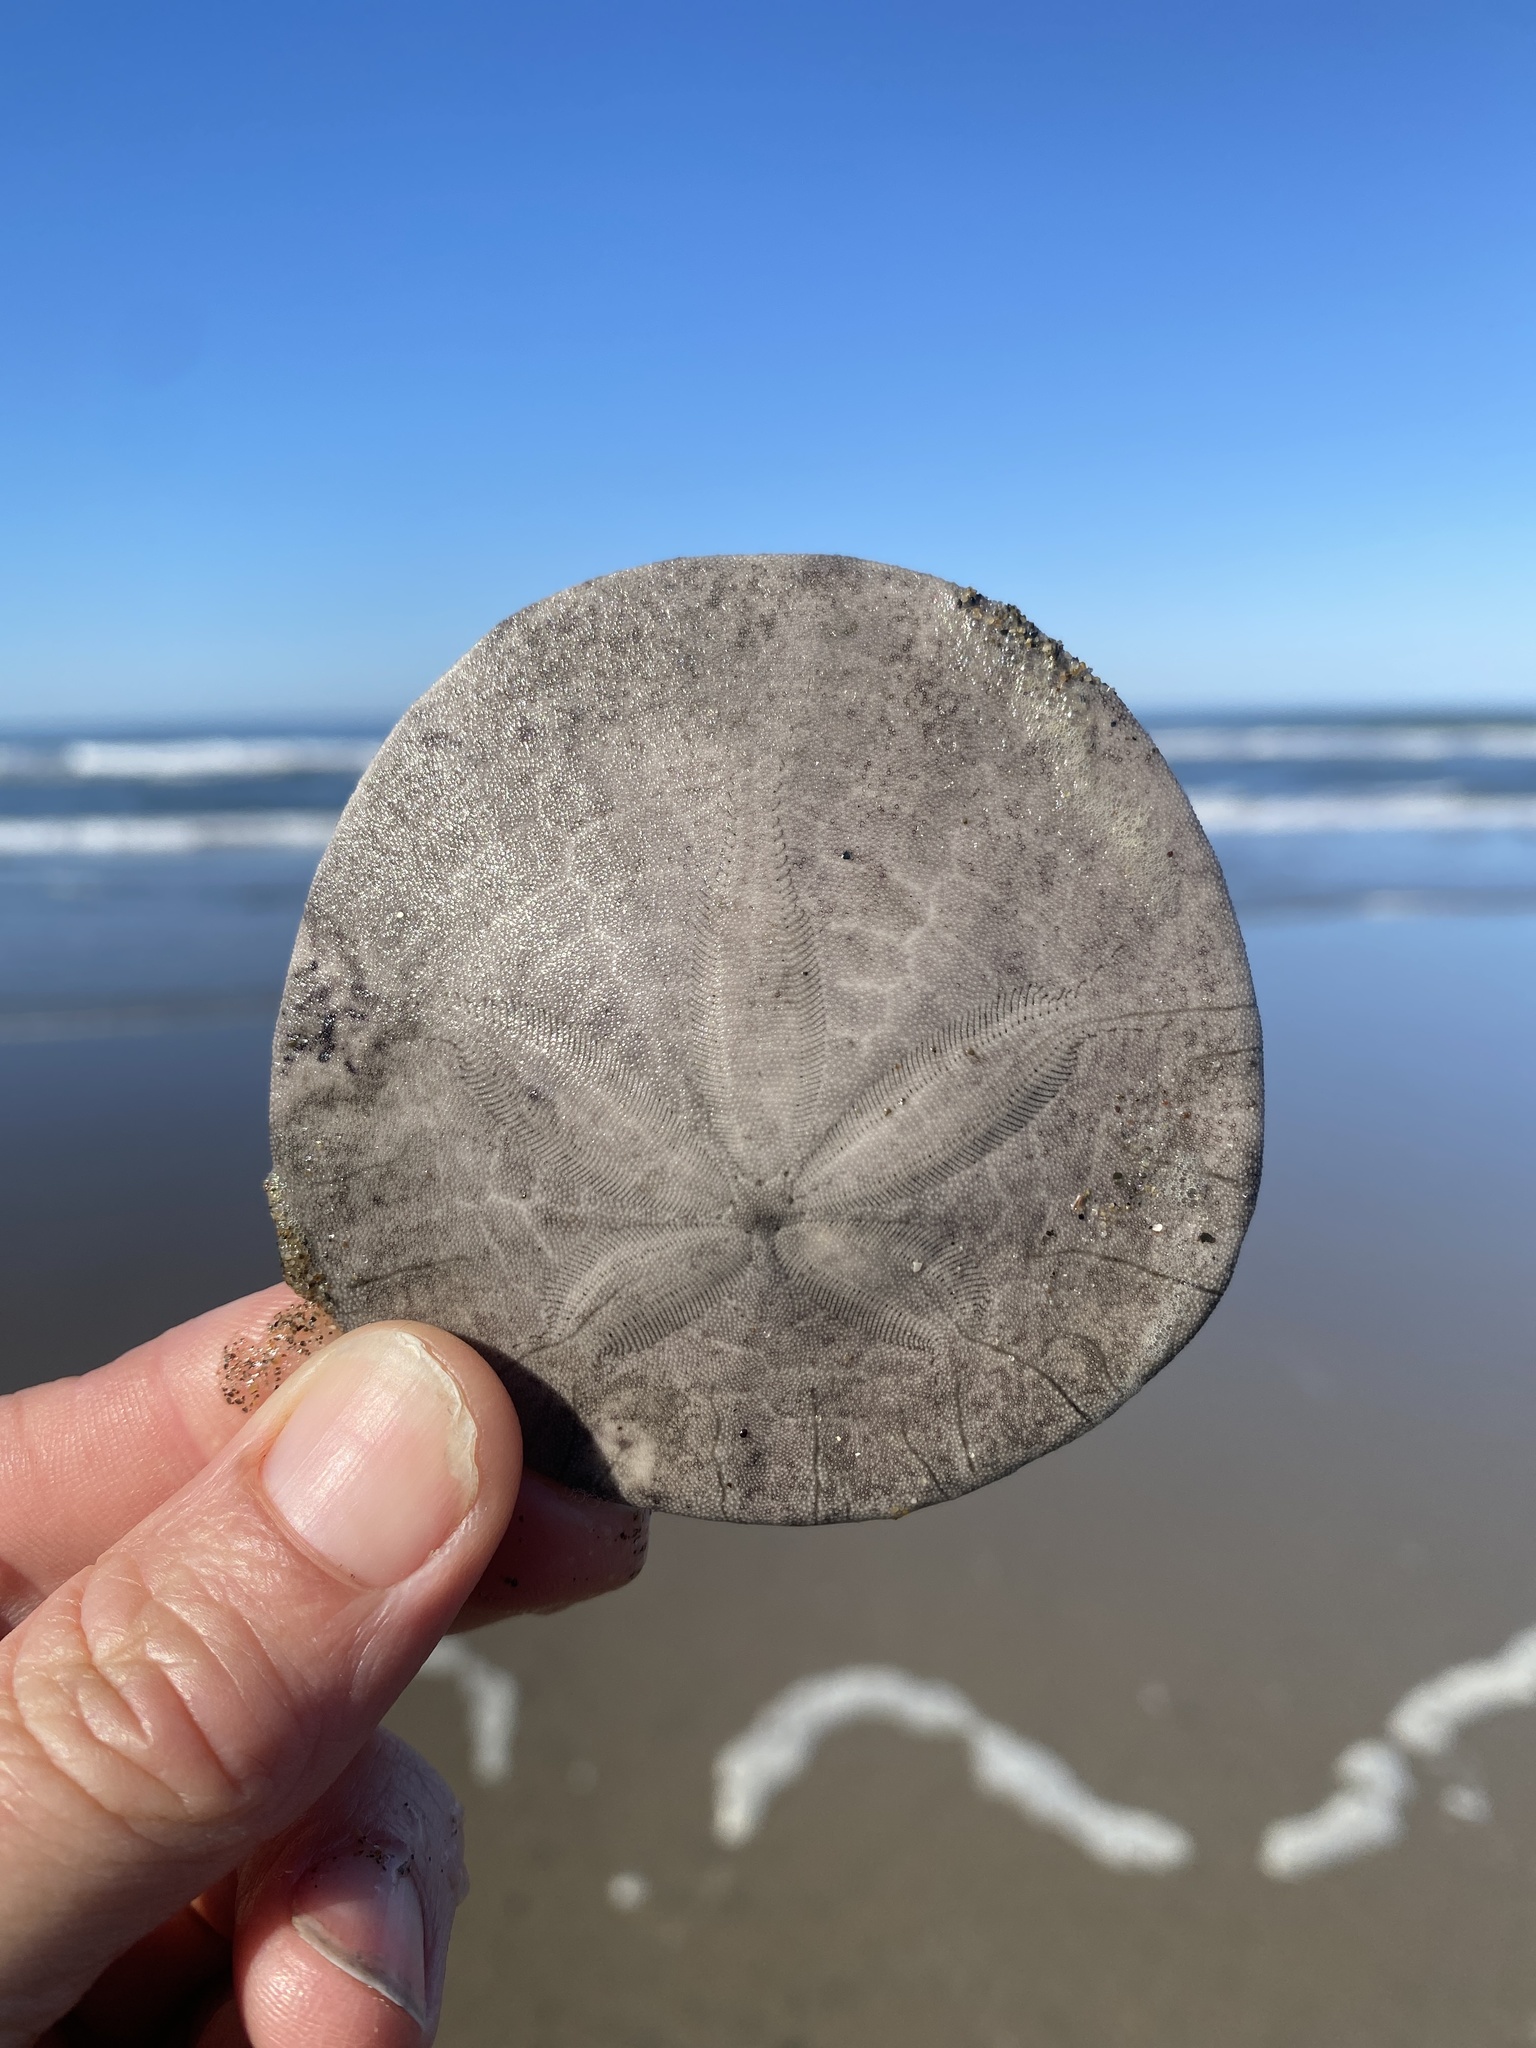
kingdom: Animalia
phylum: Echinodermata
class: Echinoidea
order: Echinolampadacea
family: Dendrasteridae
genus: Dendraster
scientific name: Dendraster excentricus
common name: Eccentric sand dollar sea urchin
